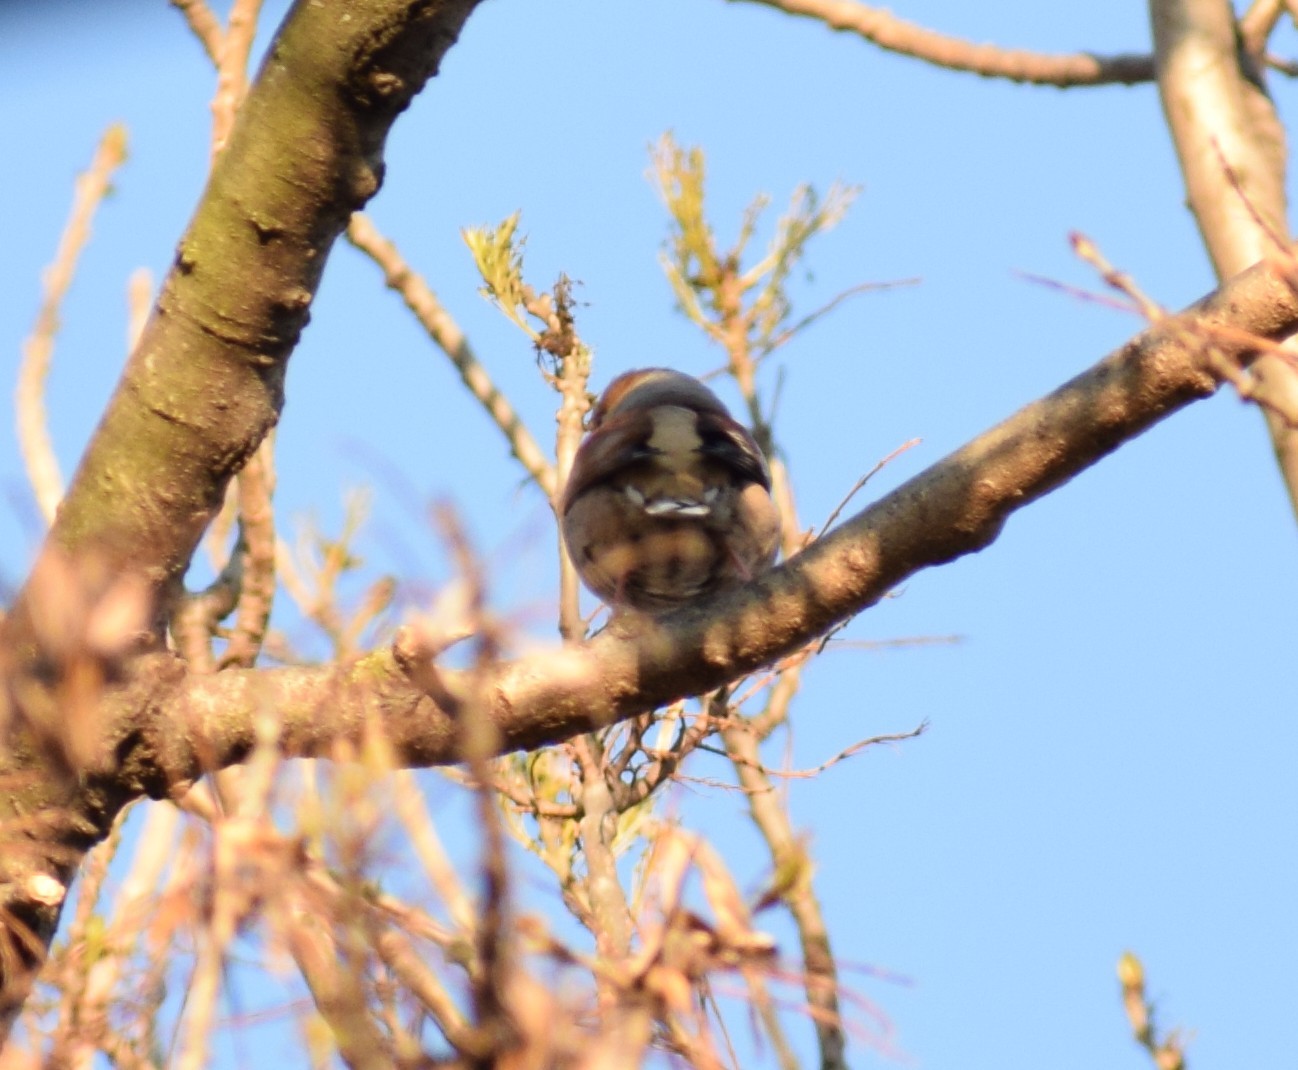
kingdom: Animalia
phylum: Chordata
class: Aves
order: Passeriformes
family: Fringillidae
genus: Coccothraustes
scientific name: Coccothraustes coccothraustes
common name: Hawfinch
